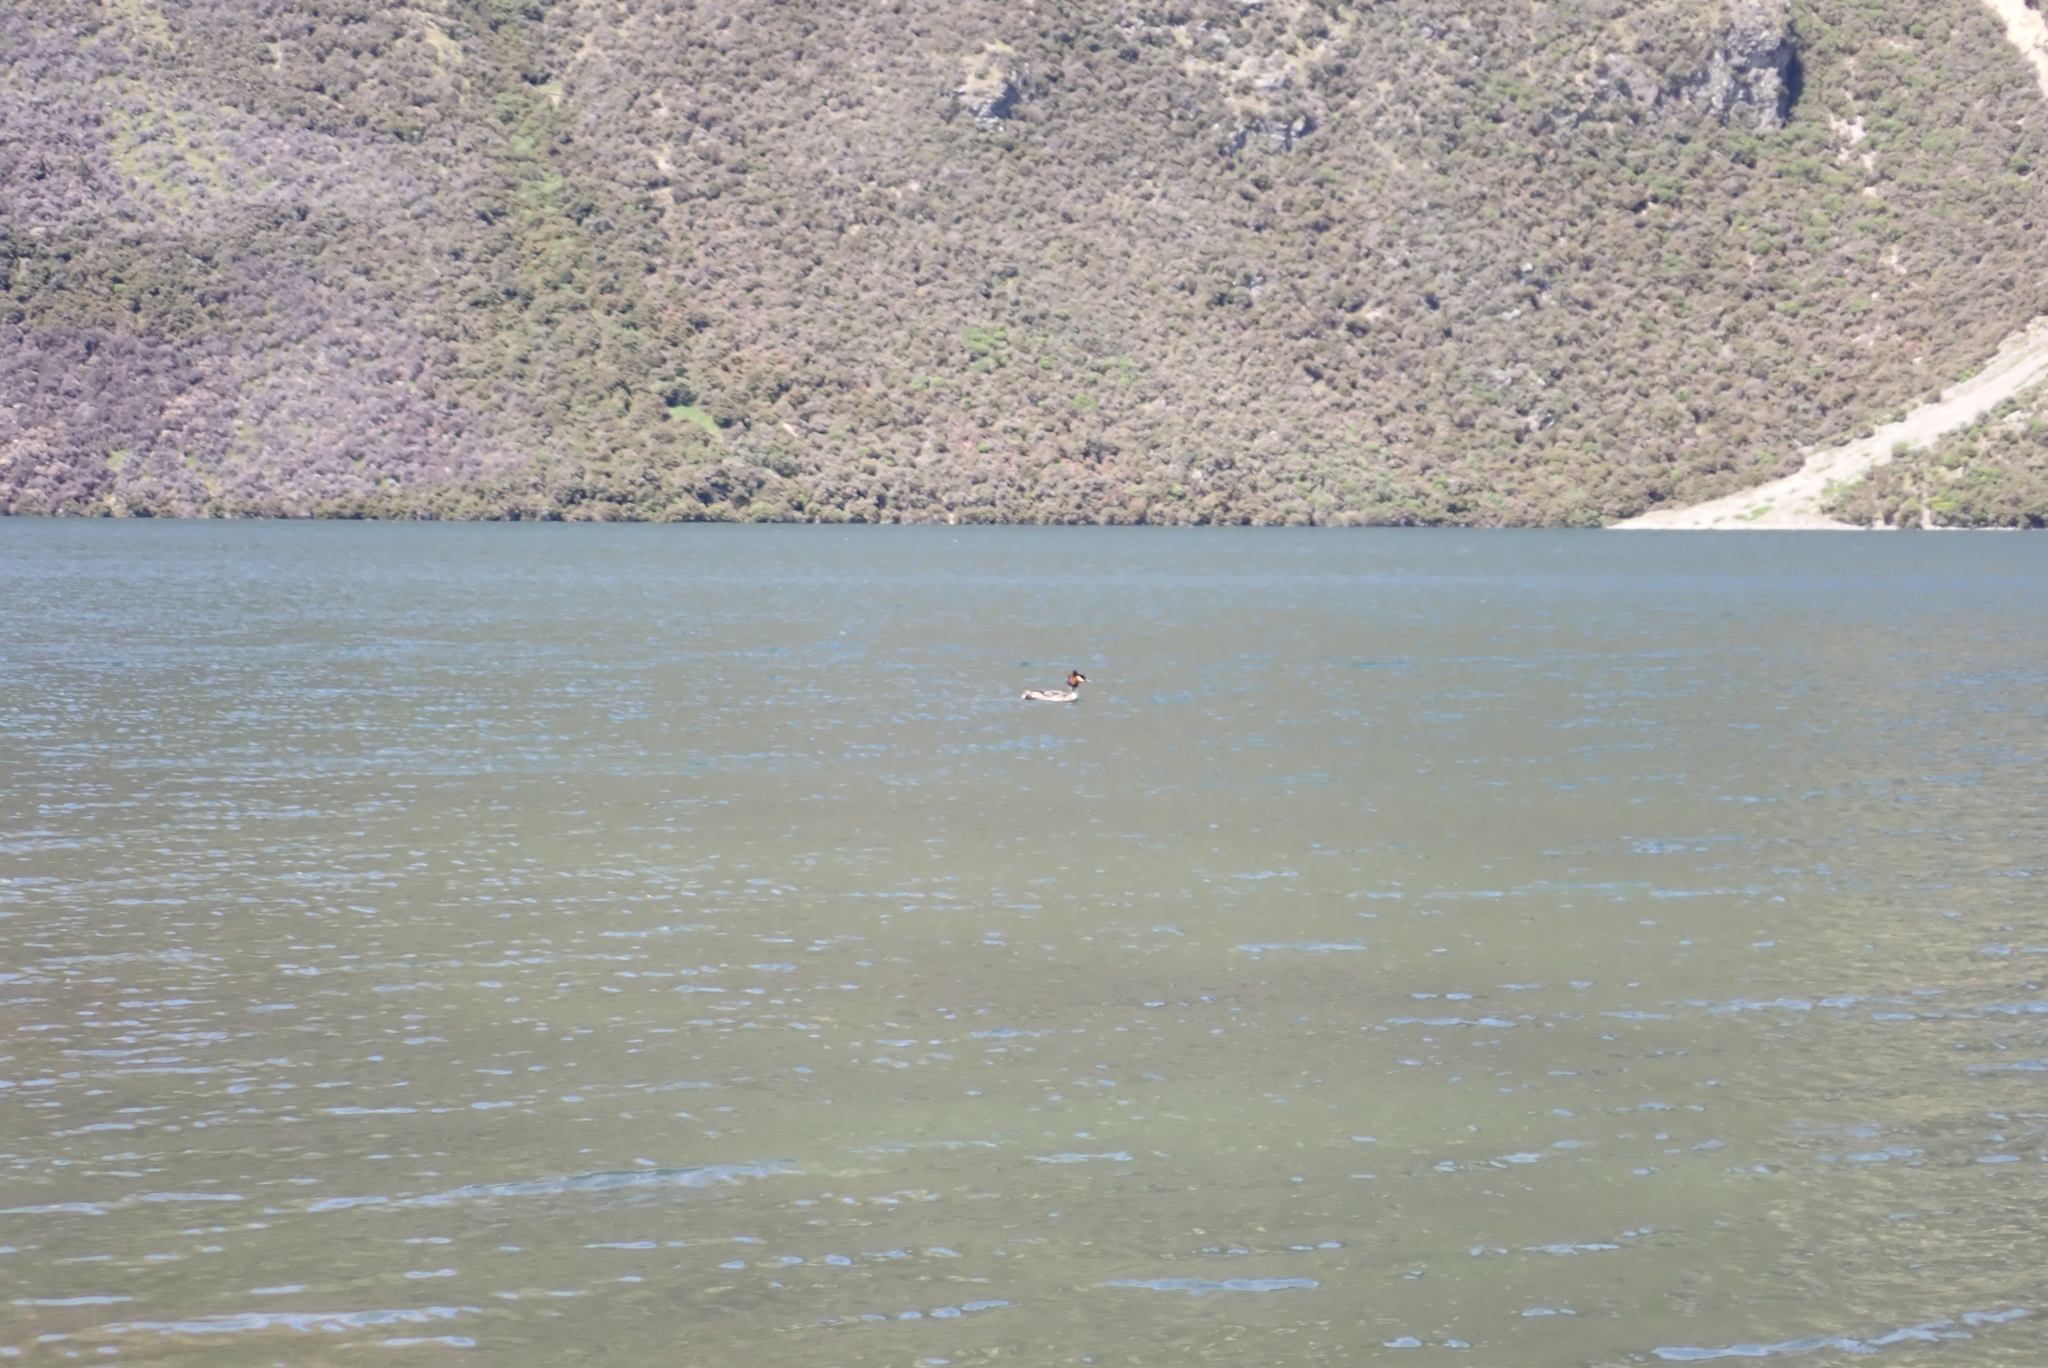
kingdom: Animalia
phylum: Chordata
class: Aves
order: Podicipediformes
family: Podicipedidae
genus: Podiceps
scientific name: Podiceps cristatus
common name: Great crested grebe
